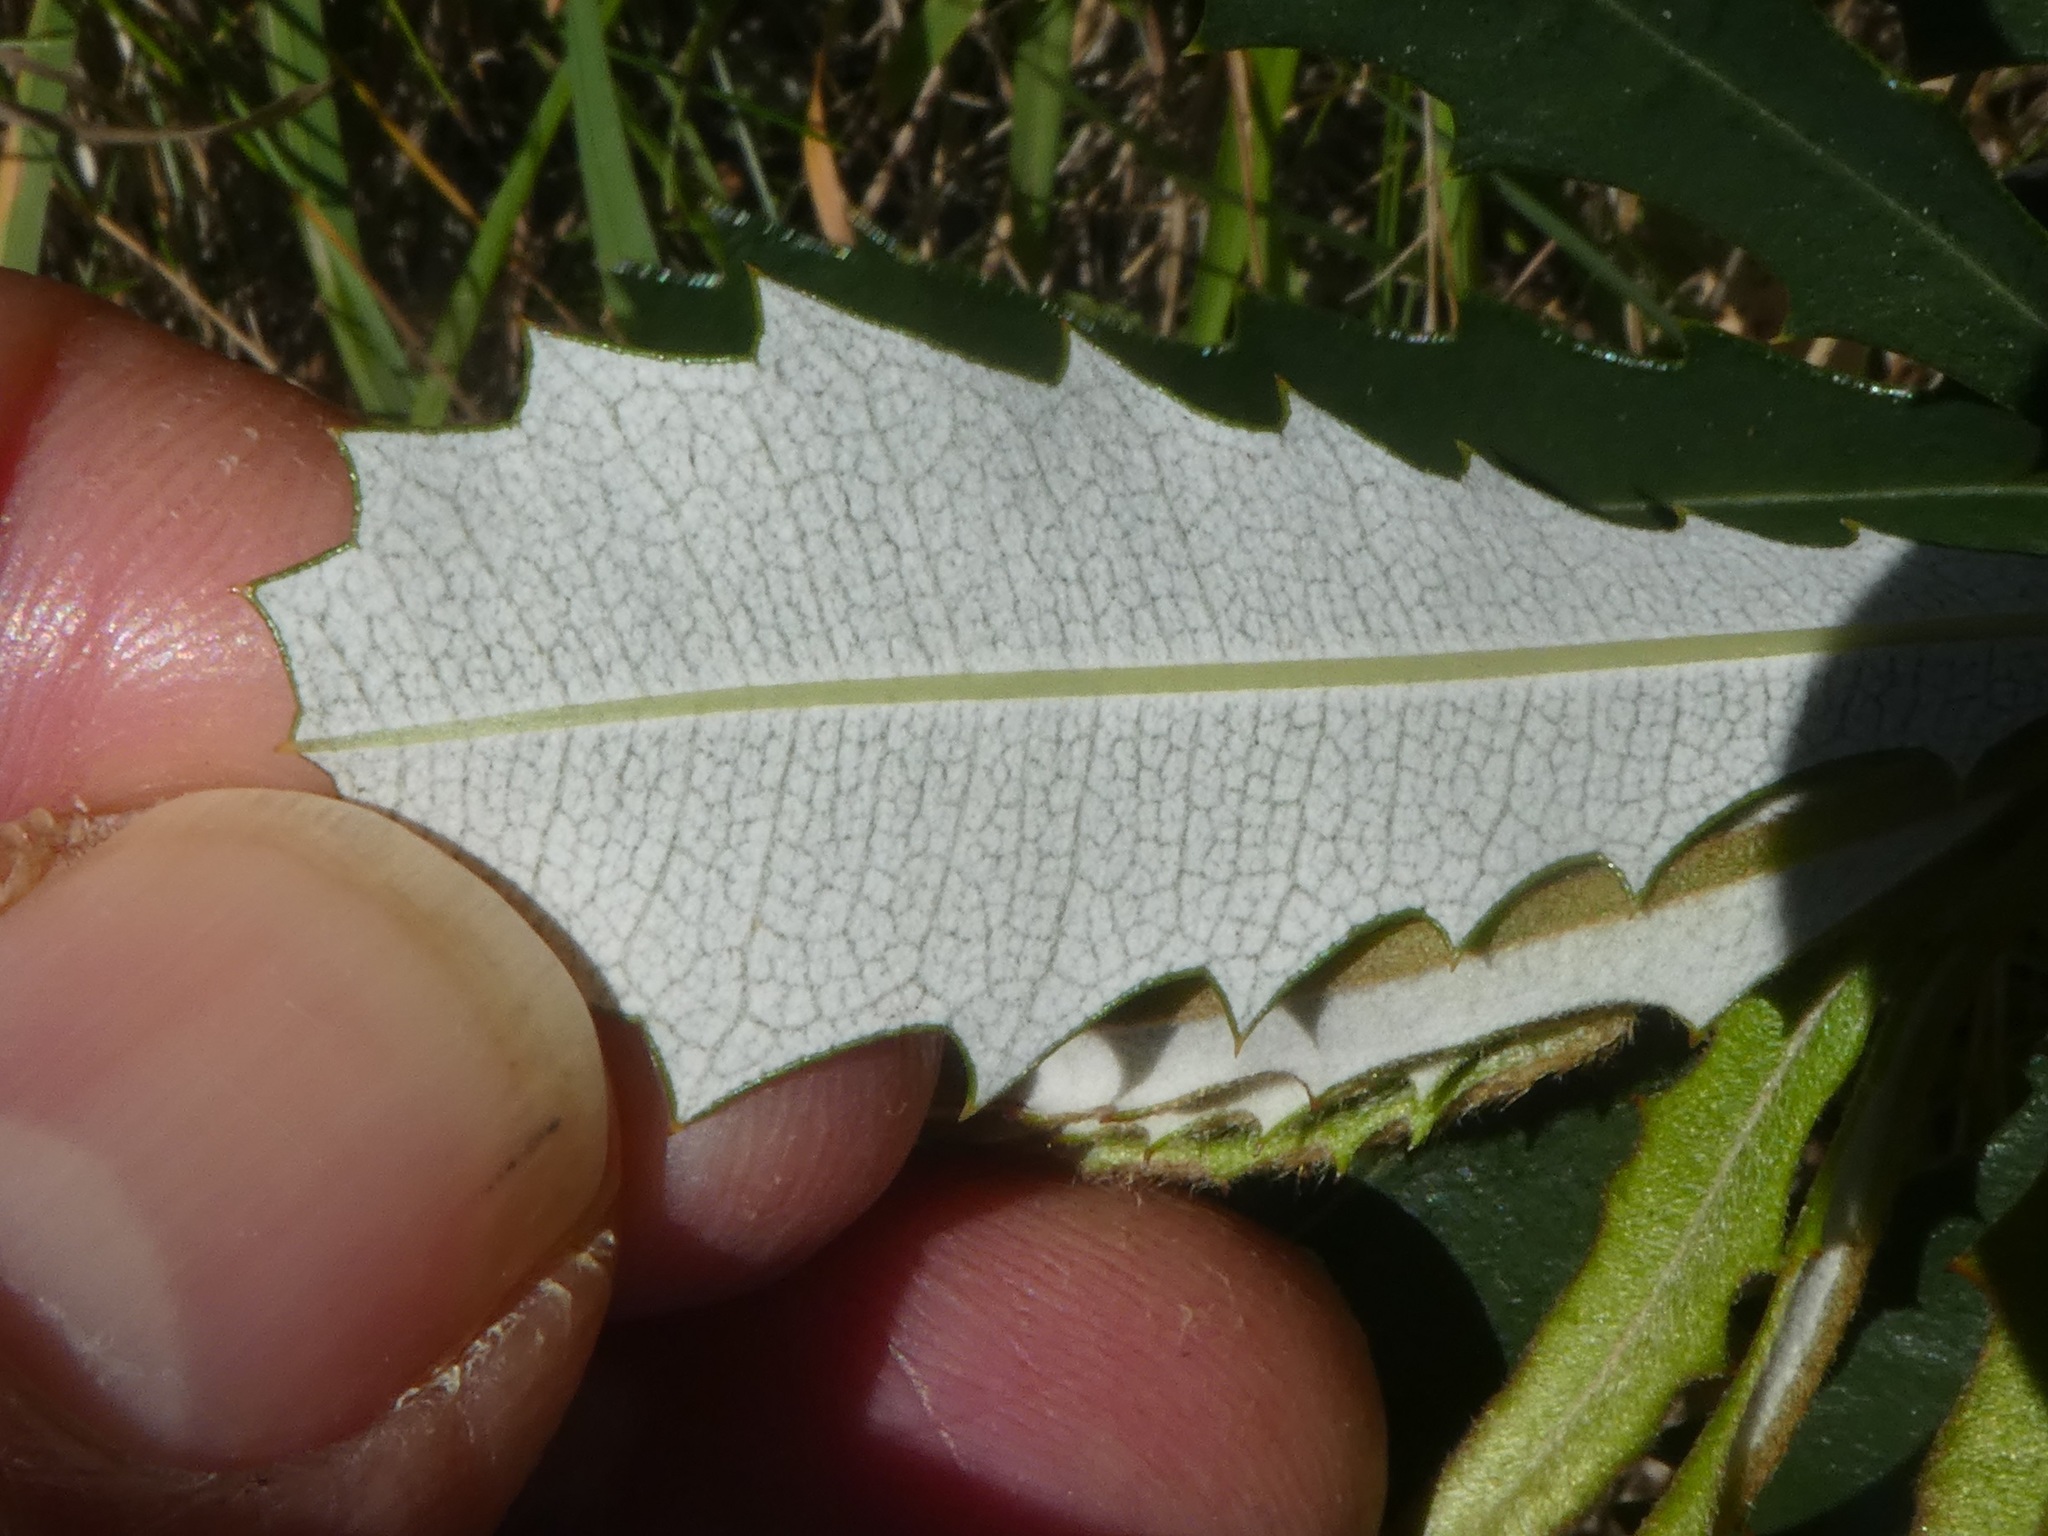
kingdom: Plantae
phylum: Tracheophyta
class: Magnoliopsida
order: Proteales
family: Proteaceae
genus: Banksia
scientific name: Banksia integrifolia
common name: White-honeysuckle
